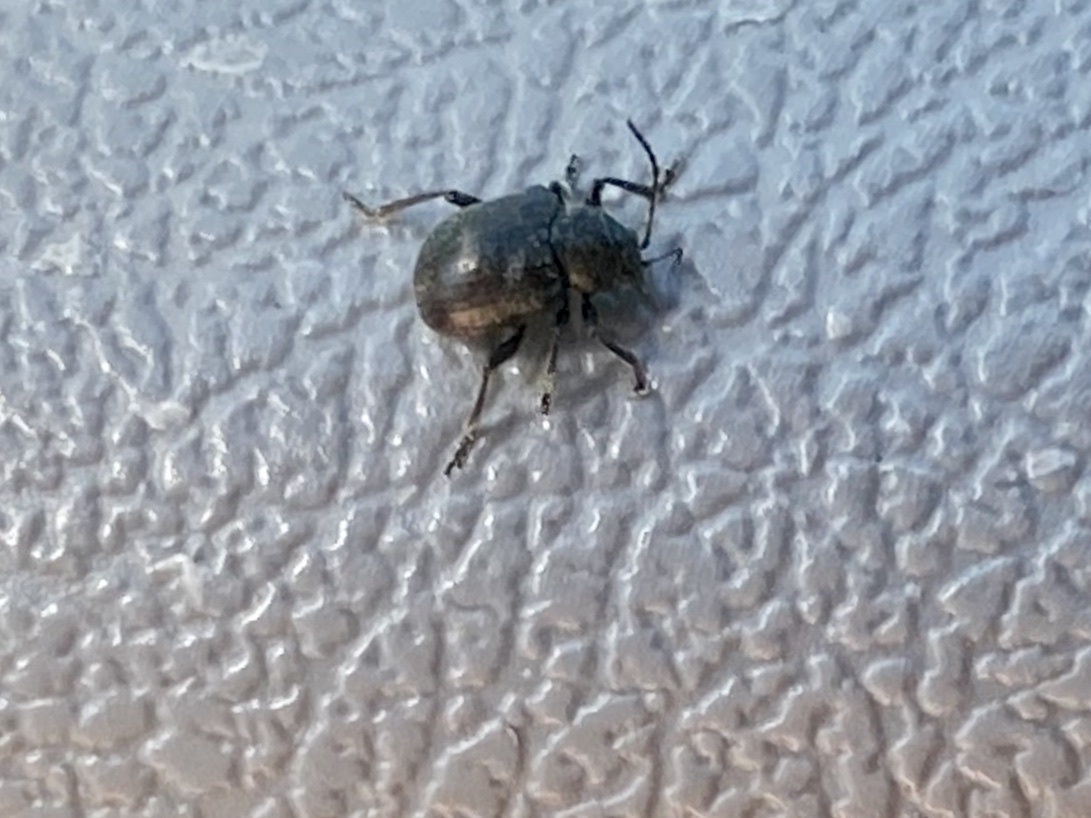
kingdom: Animalia
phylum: Arthropoda
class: Insecta
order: Coleoptera
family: Chrysomelidae
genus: Bromius
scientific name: Bromius obscurus
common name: Western grape rootworm
